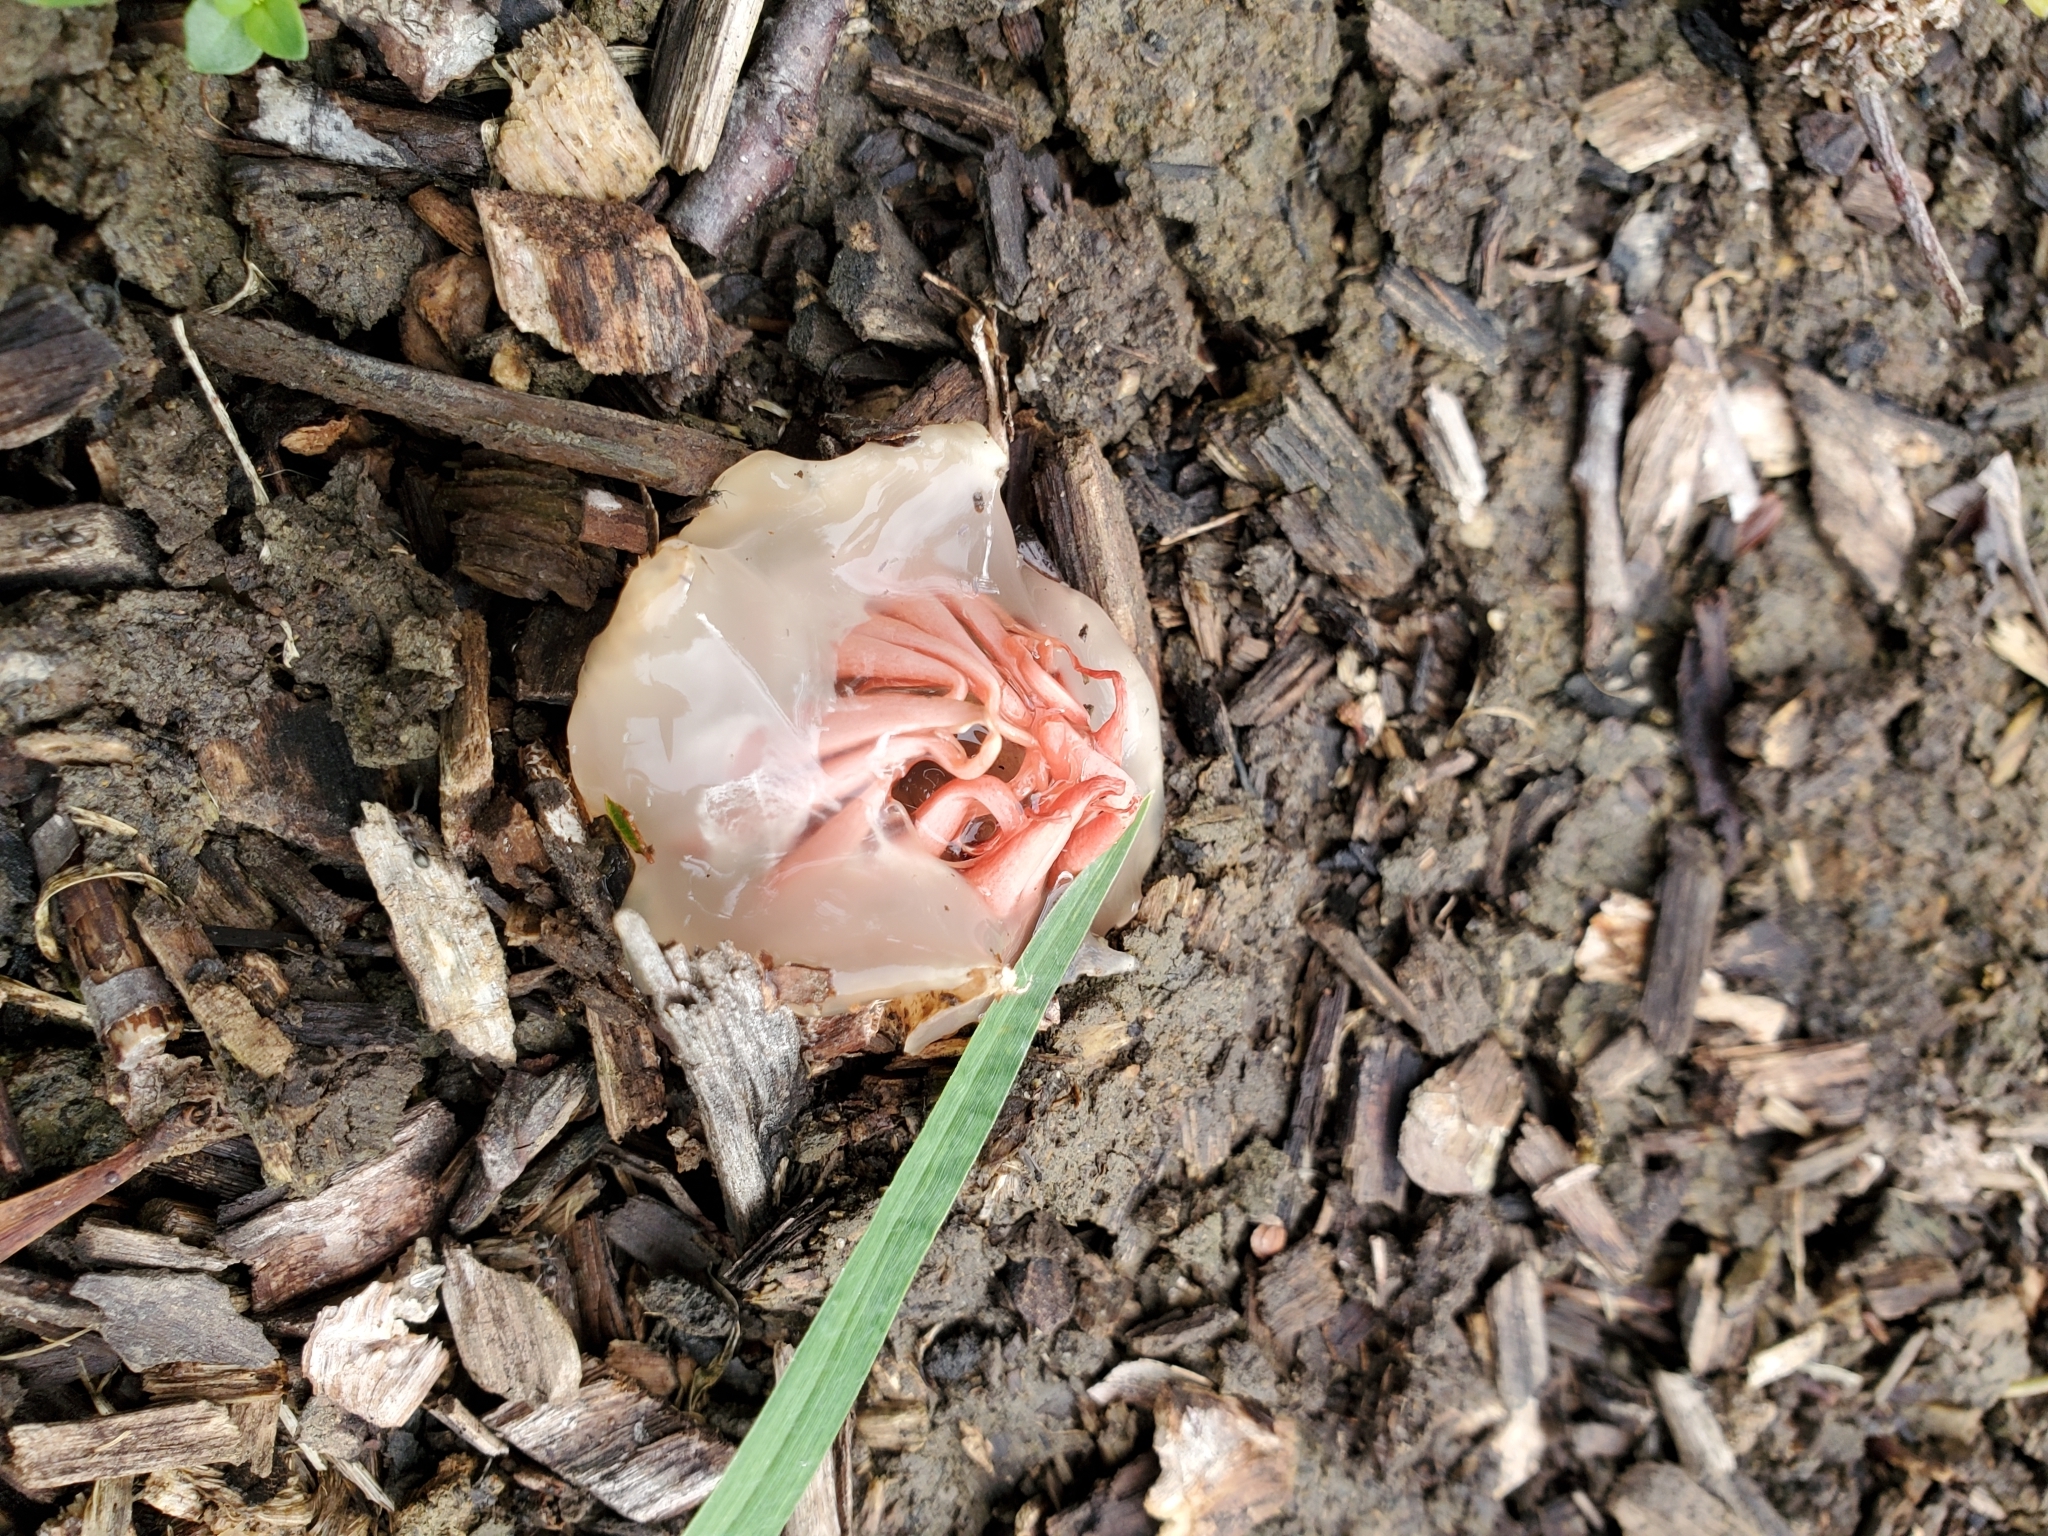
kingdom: Fungi
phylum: Basidiomycota
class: Agaricomycetes
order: Phallales
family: Phallaceae
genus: Aseroe
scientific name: Aseroe rubra
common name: Starfish fungus
